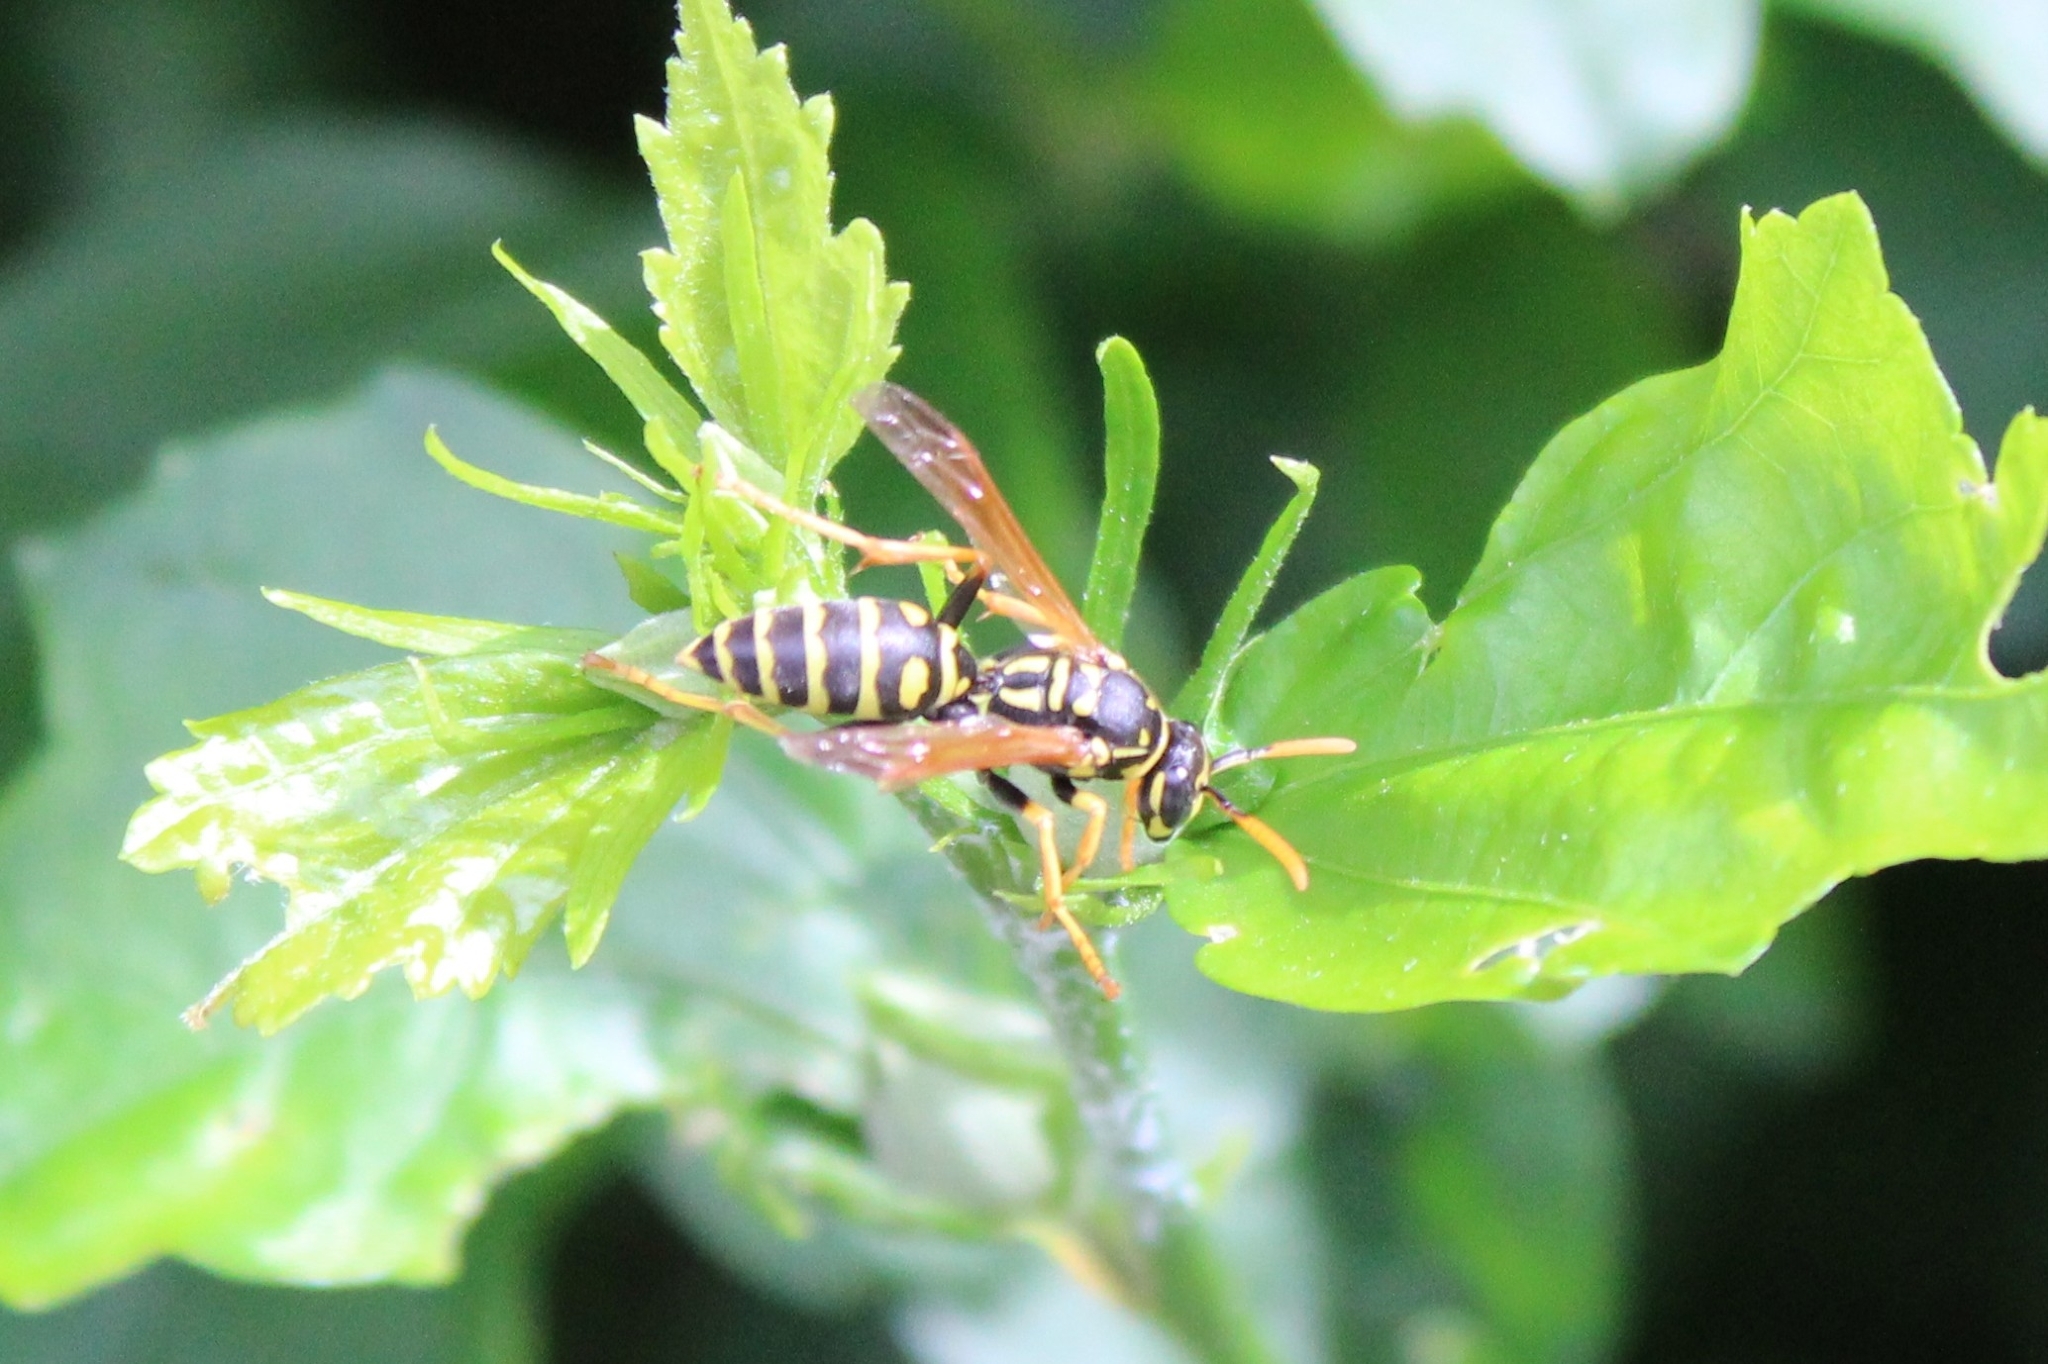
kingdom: Animalia
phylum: Arthropoda
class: Insecta
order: Hymenoptera
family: Eumenidae
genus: Polistes
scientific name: Polistes dominula
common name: Paper wasp
